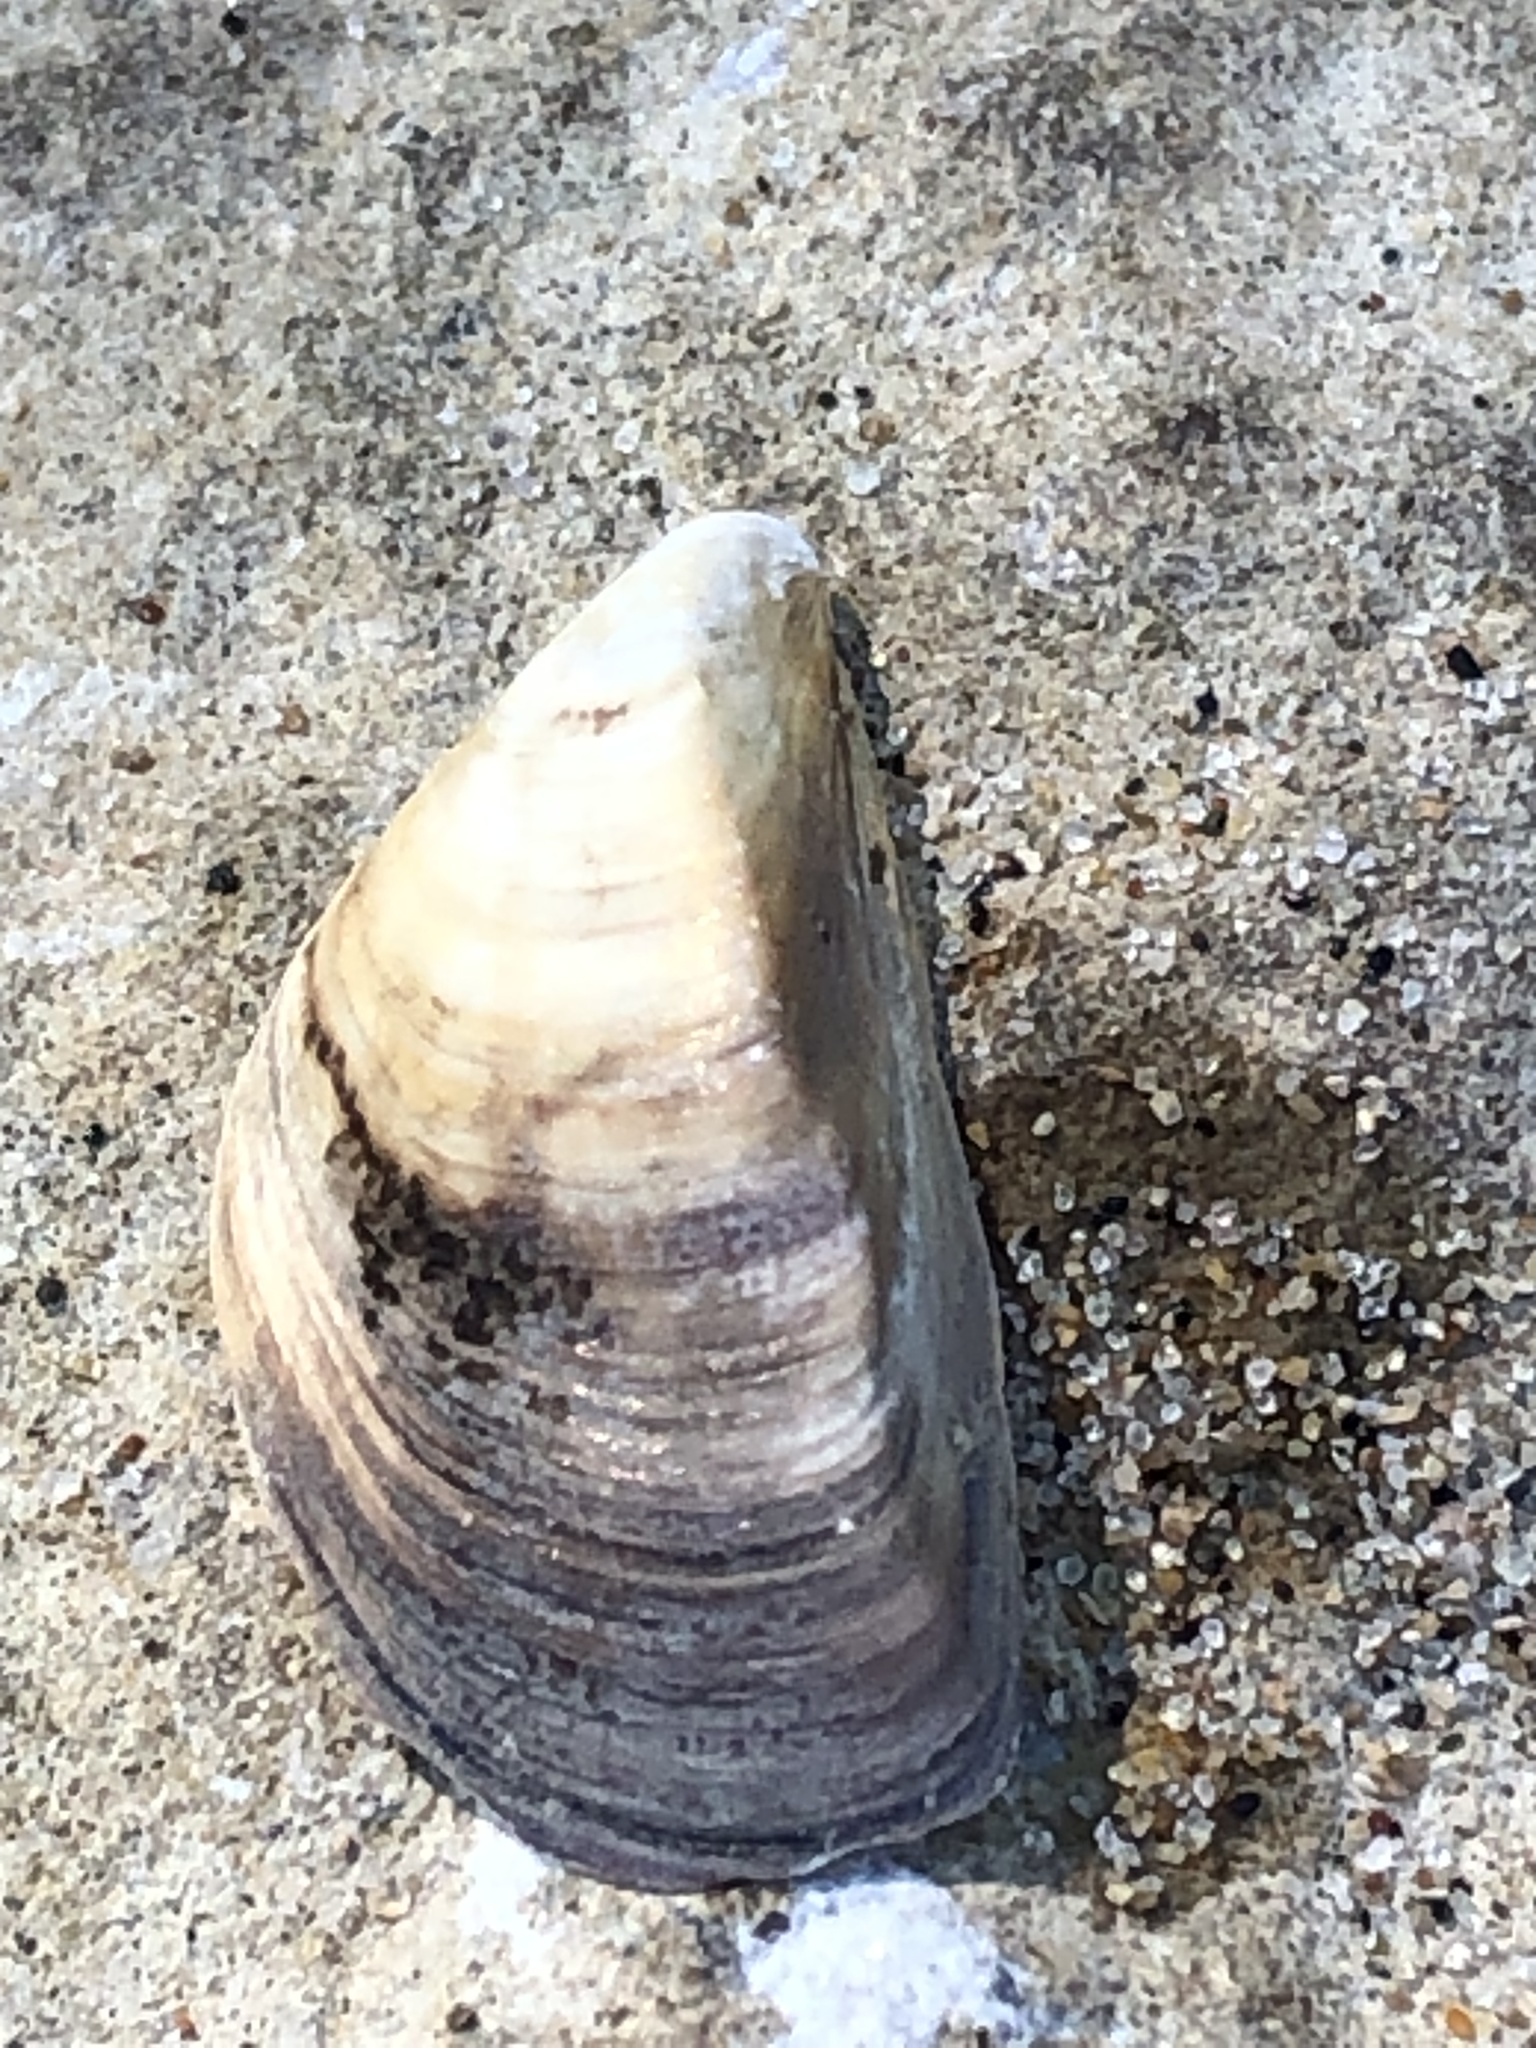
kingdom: Animalia
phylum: Mollusca
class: Bivalvia
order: Myida
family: Dreissenidae
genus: Dreissena
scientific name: Dreissena polymorpha
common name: Zebra mussel
